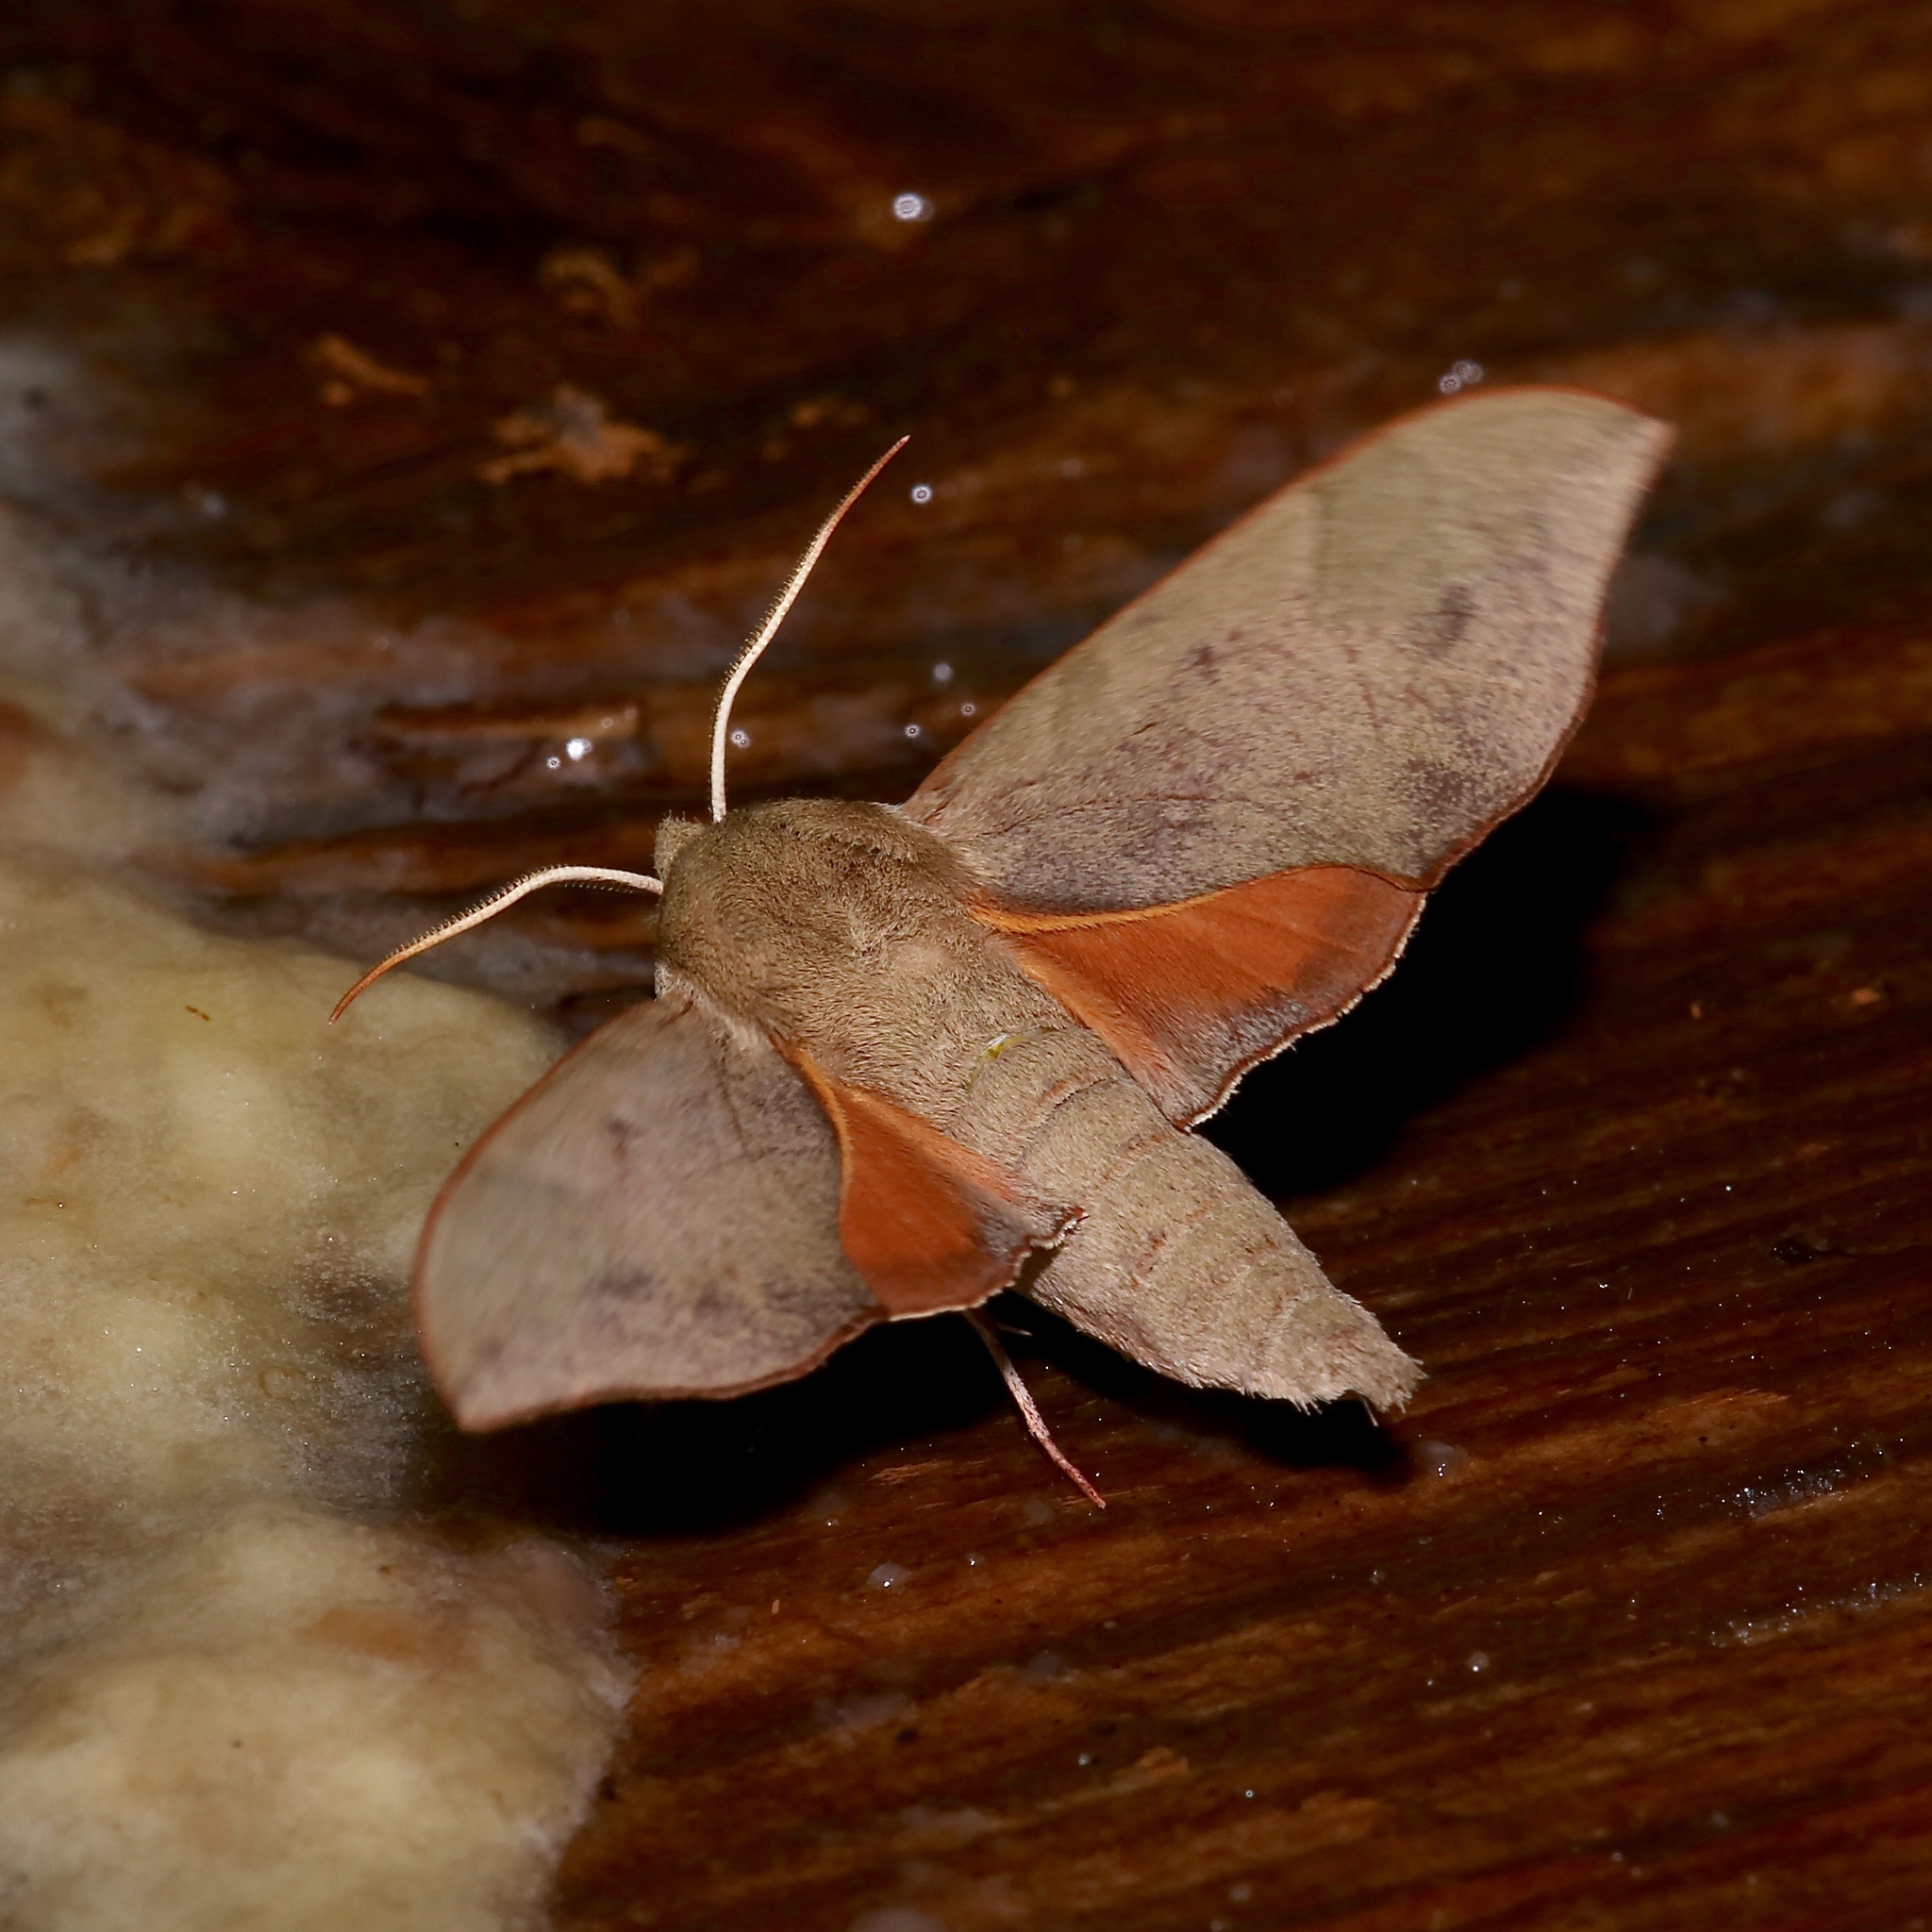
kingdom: Animalia
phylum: Arthropoda
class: Insecta
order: Lepidoptera
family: Sphingidae
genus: Darapsa
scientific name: Darapsa myron
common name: Hog sphinx
